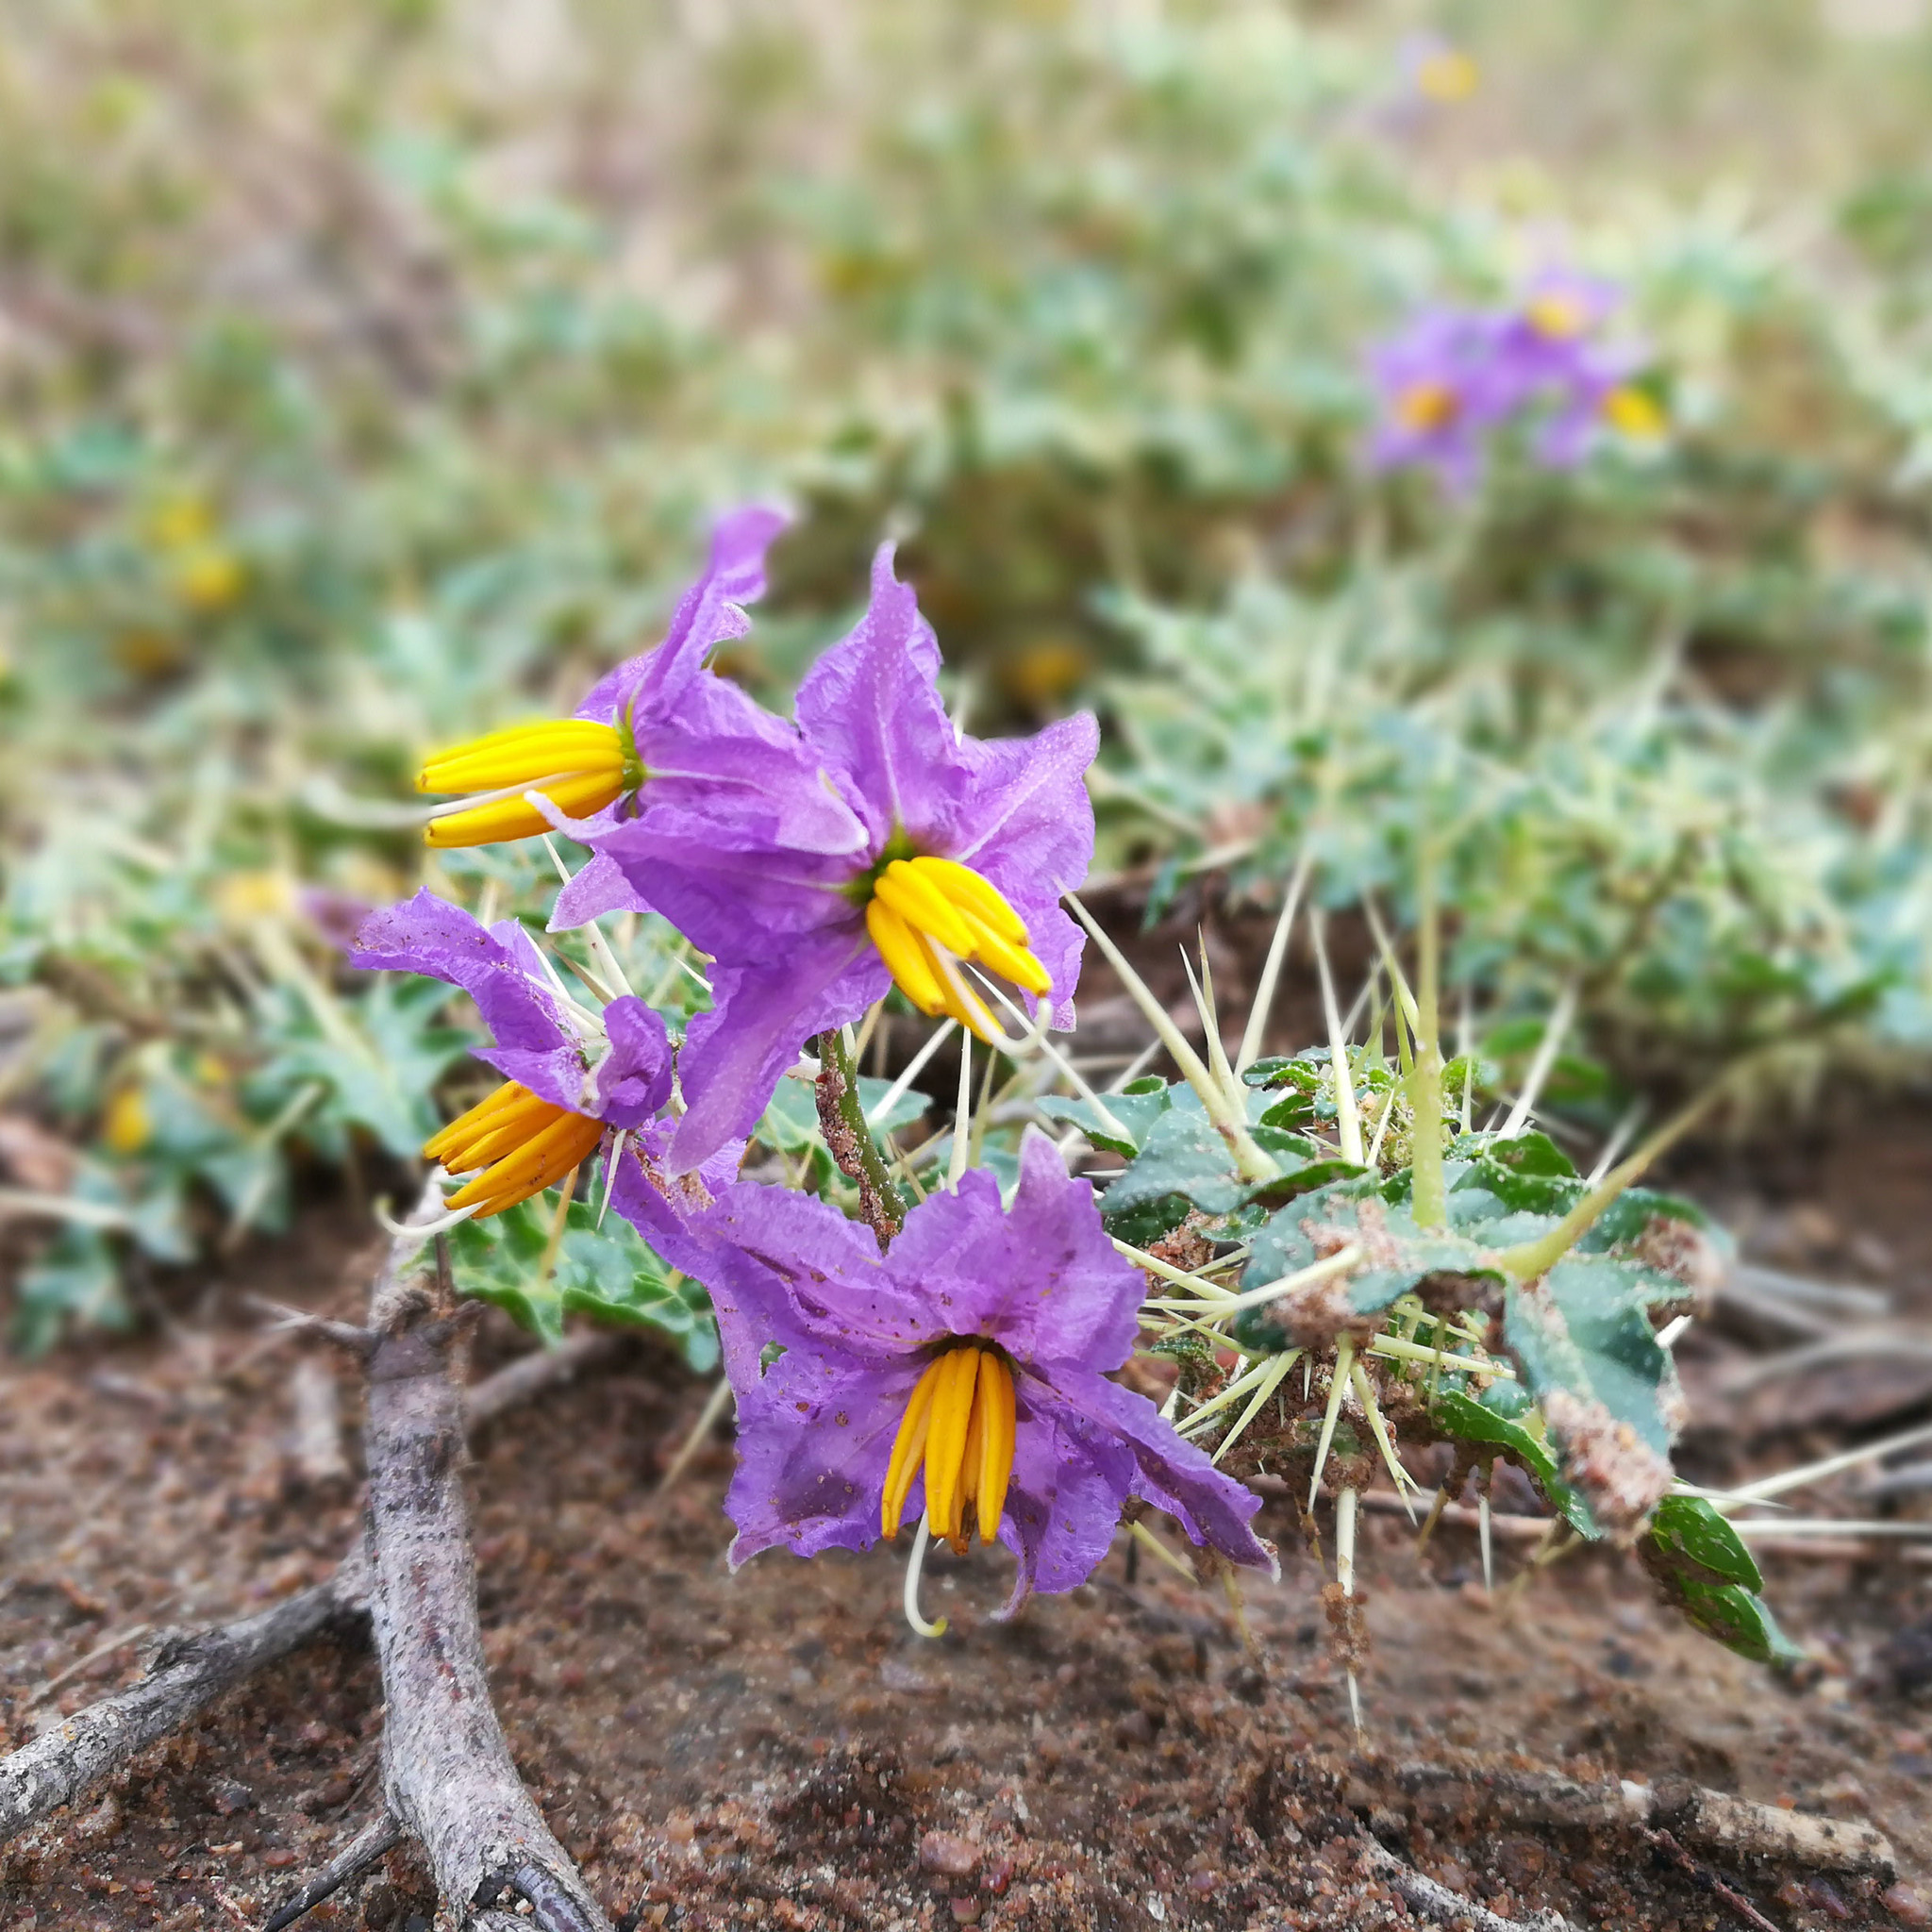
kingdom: Plantae
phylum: Tracheophyta
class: Magnoliopsida
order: Solanales
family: Solanaceae
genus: Solanum
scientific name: Solanum virginianum
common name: Surattense nightshade
